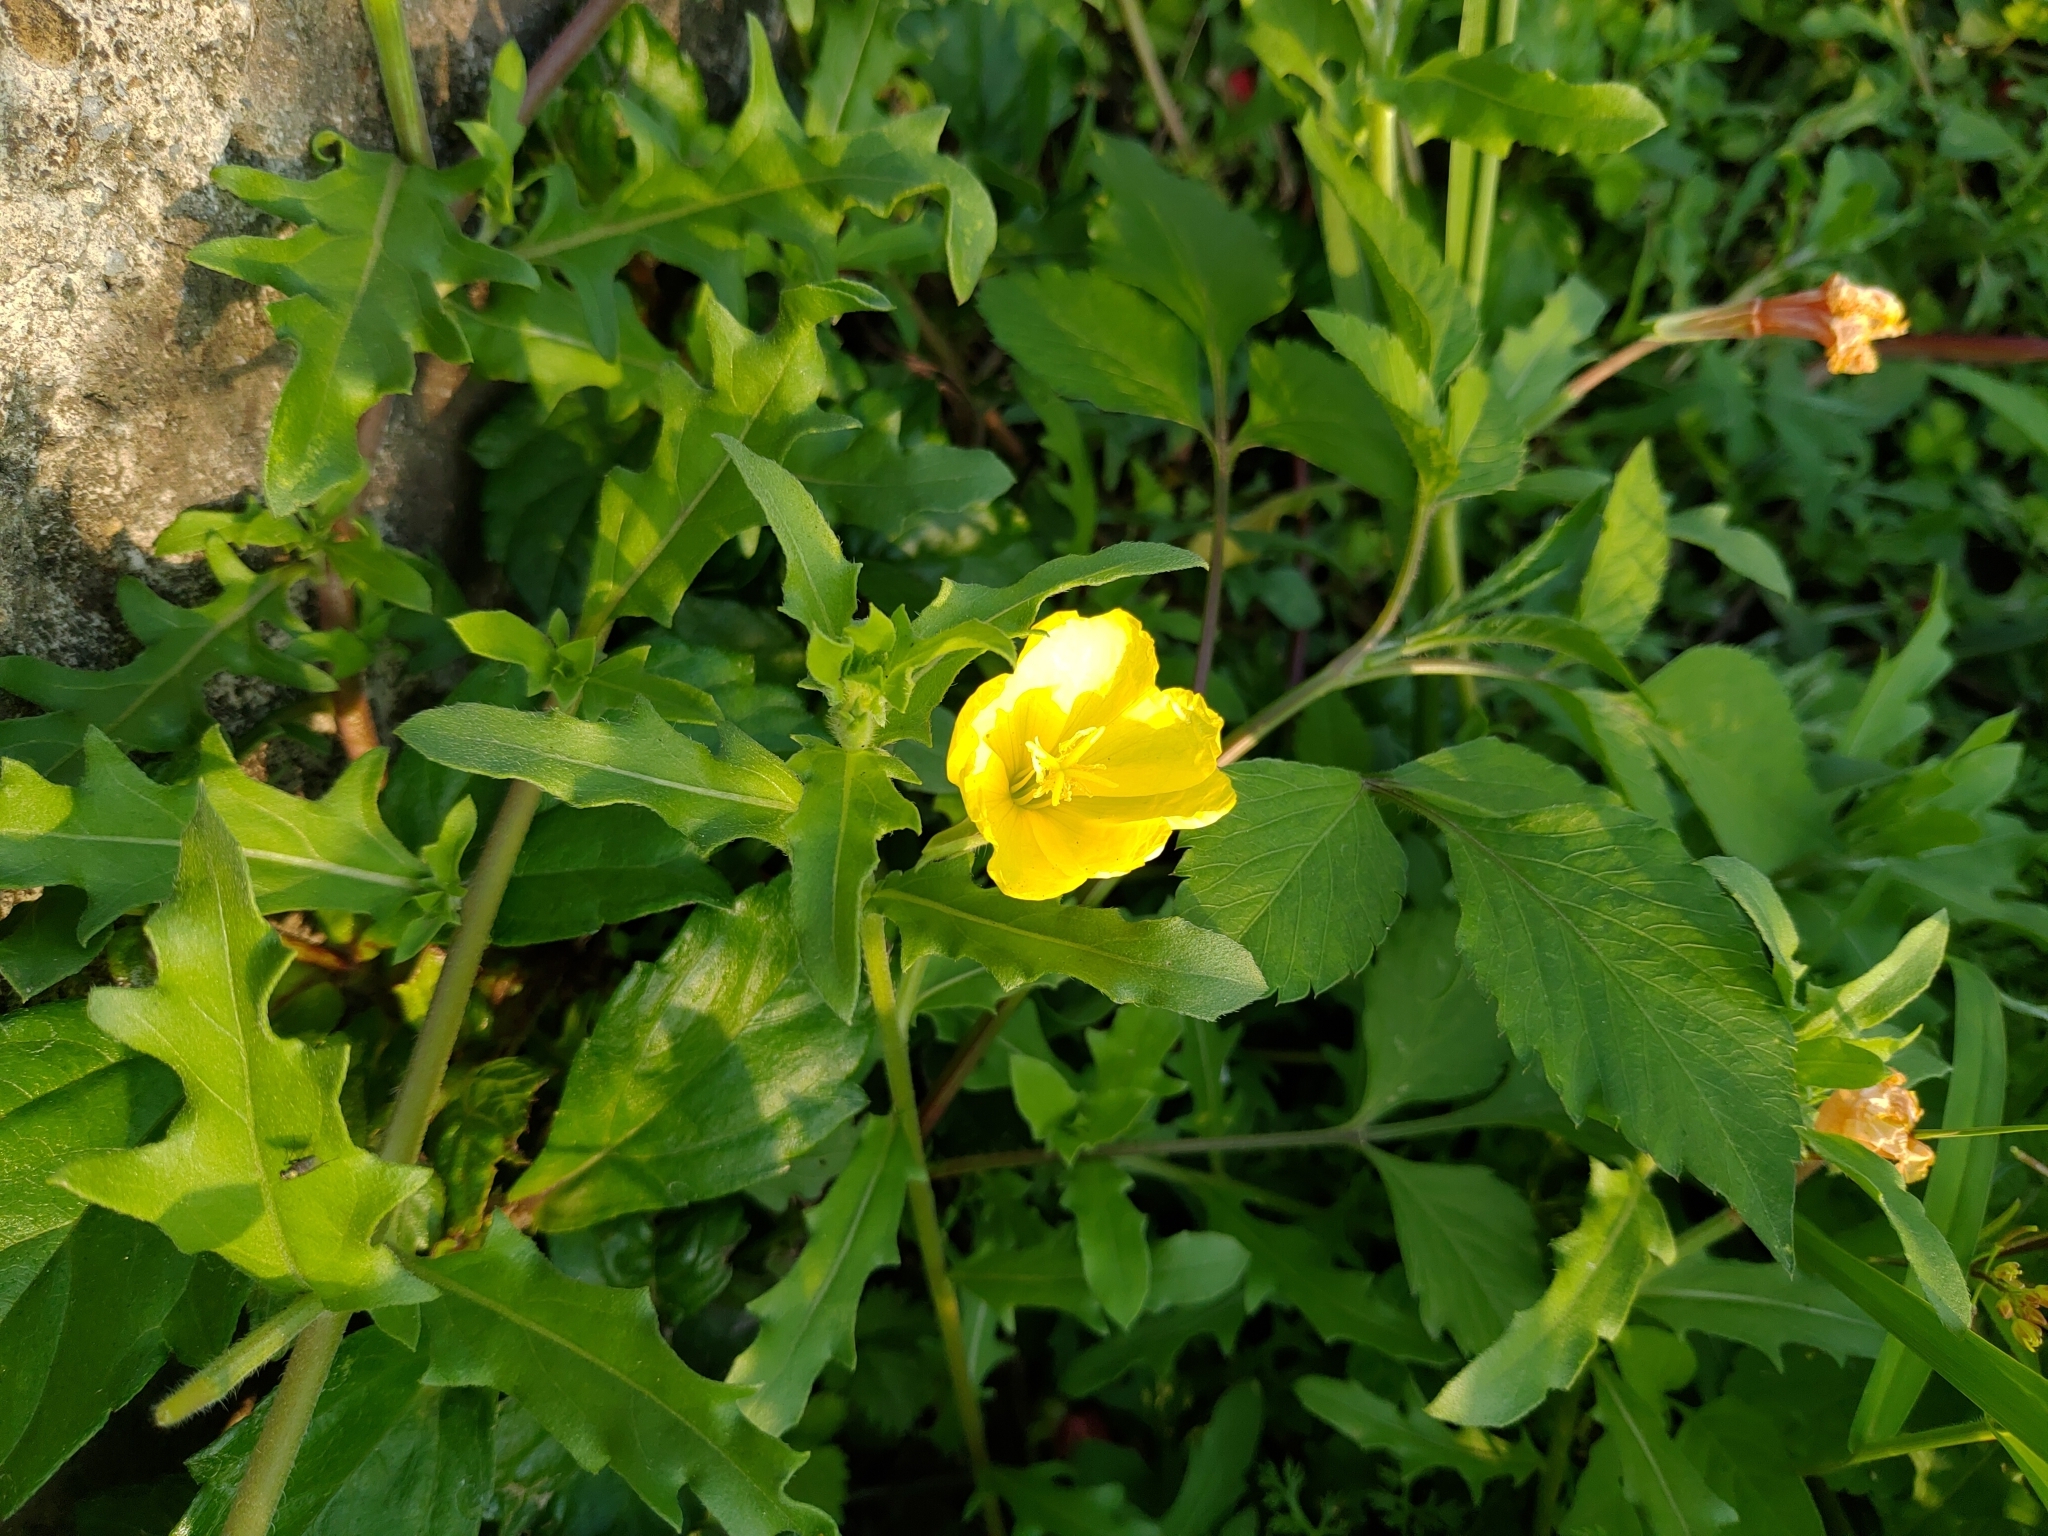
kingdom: Plantae
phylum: Tracheophyta
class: Magnoliopsida
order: Myrtales
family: Onagraceae
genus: Oenothera
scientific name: Oenothera laciniata
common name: Cut-leaved evening-primrose
